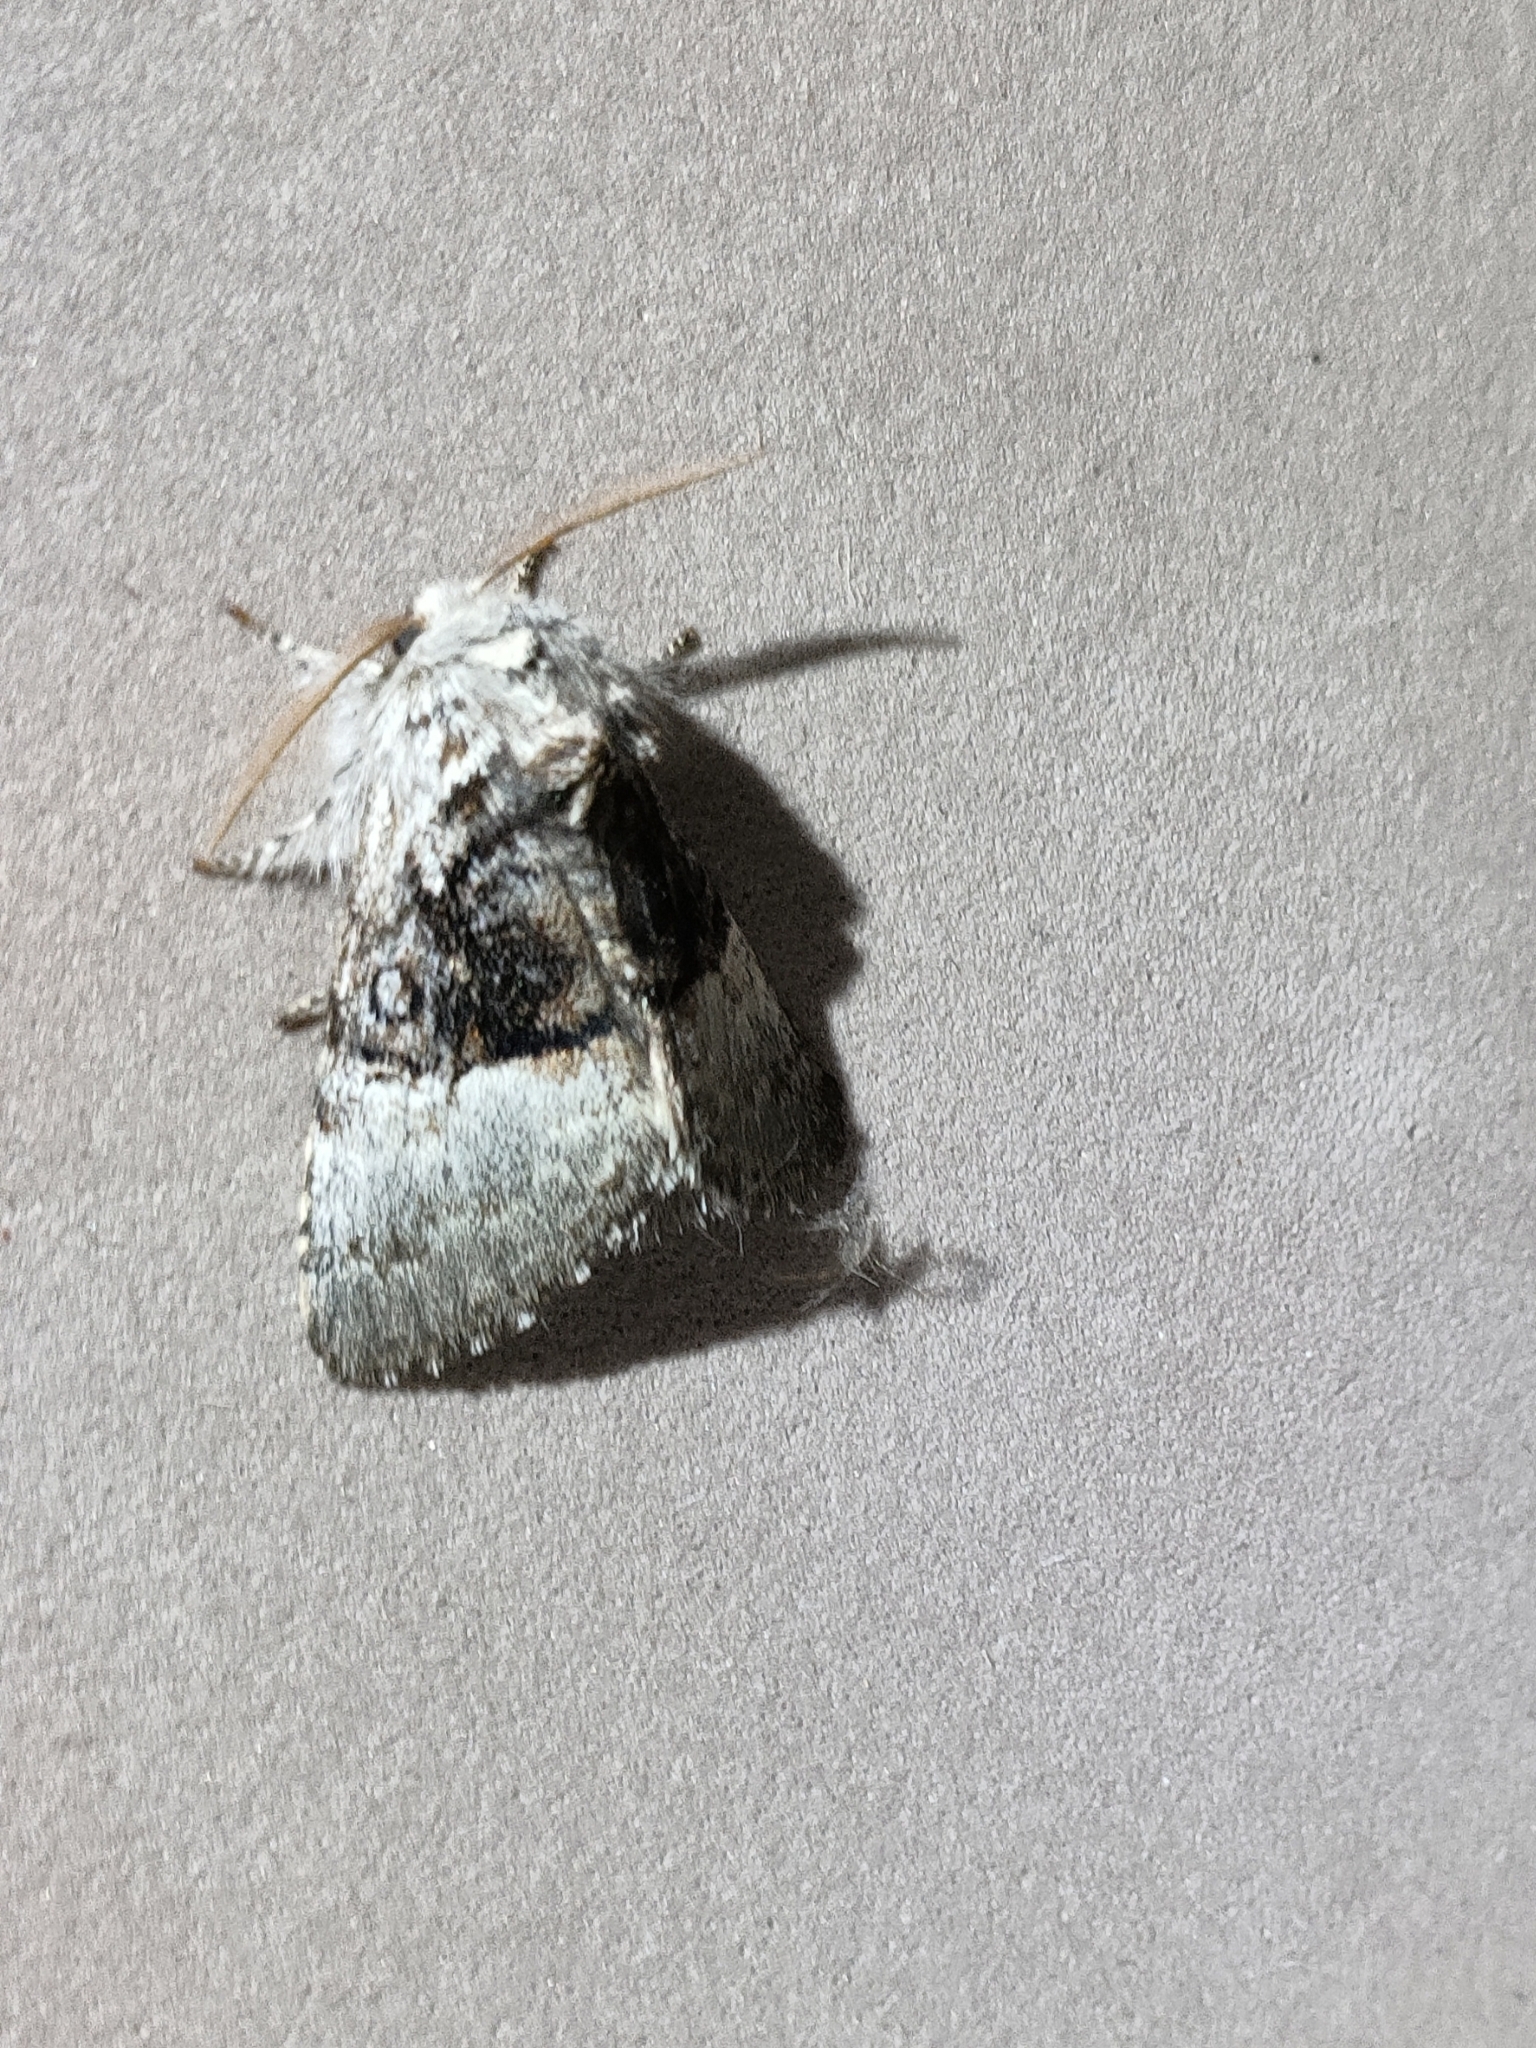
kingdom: Animalia
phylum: Arthropoda
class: Insecta
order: Lepidoptera
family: Noctuidae
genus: Colocasia
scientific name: Colocasia coryli
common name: Nut-tree tussock
